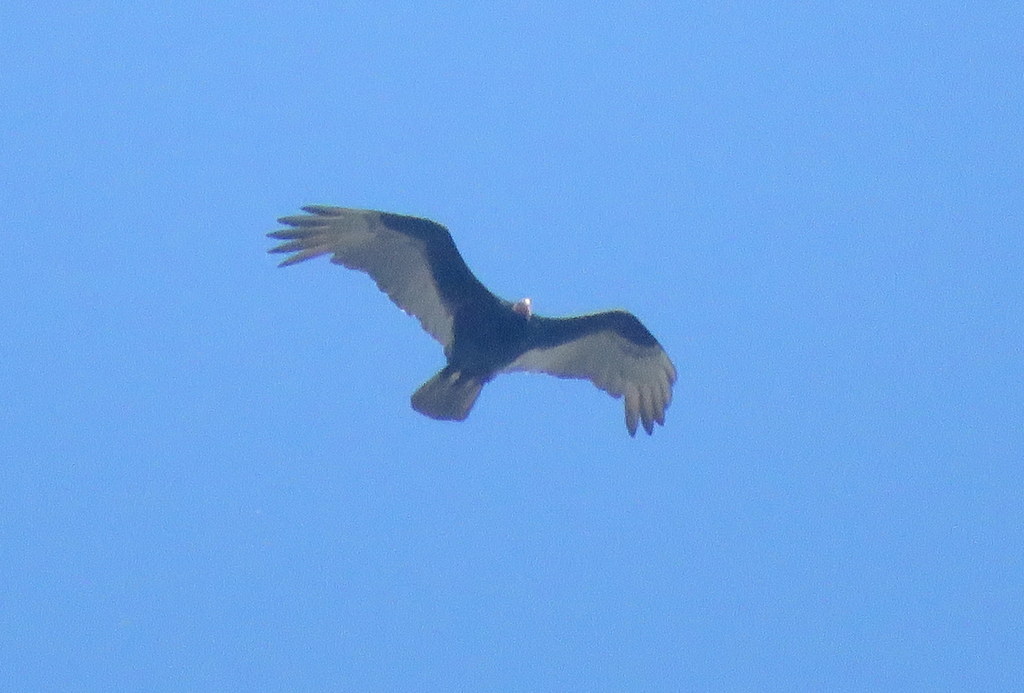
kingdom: Animalia
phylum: Chordata
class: Aves
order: Accipitriformes
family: Cathartidae
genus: Cathartes
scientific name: Cathartes aura
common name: Turkey vulture
